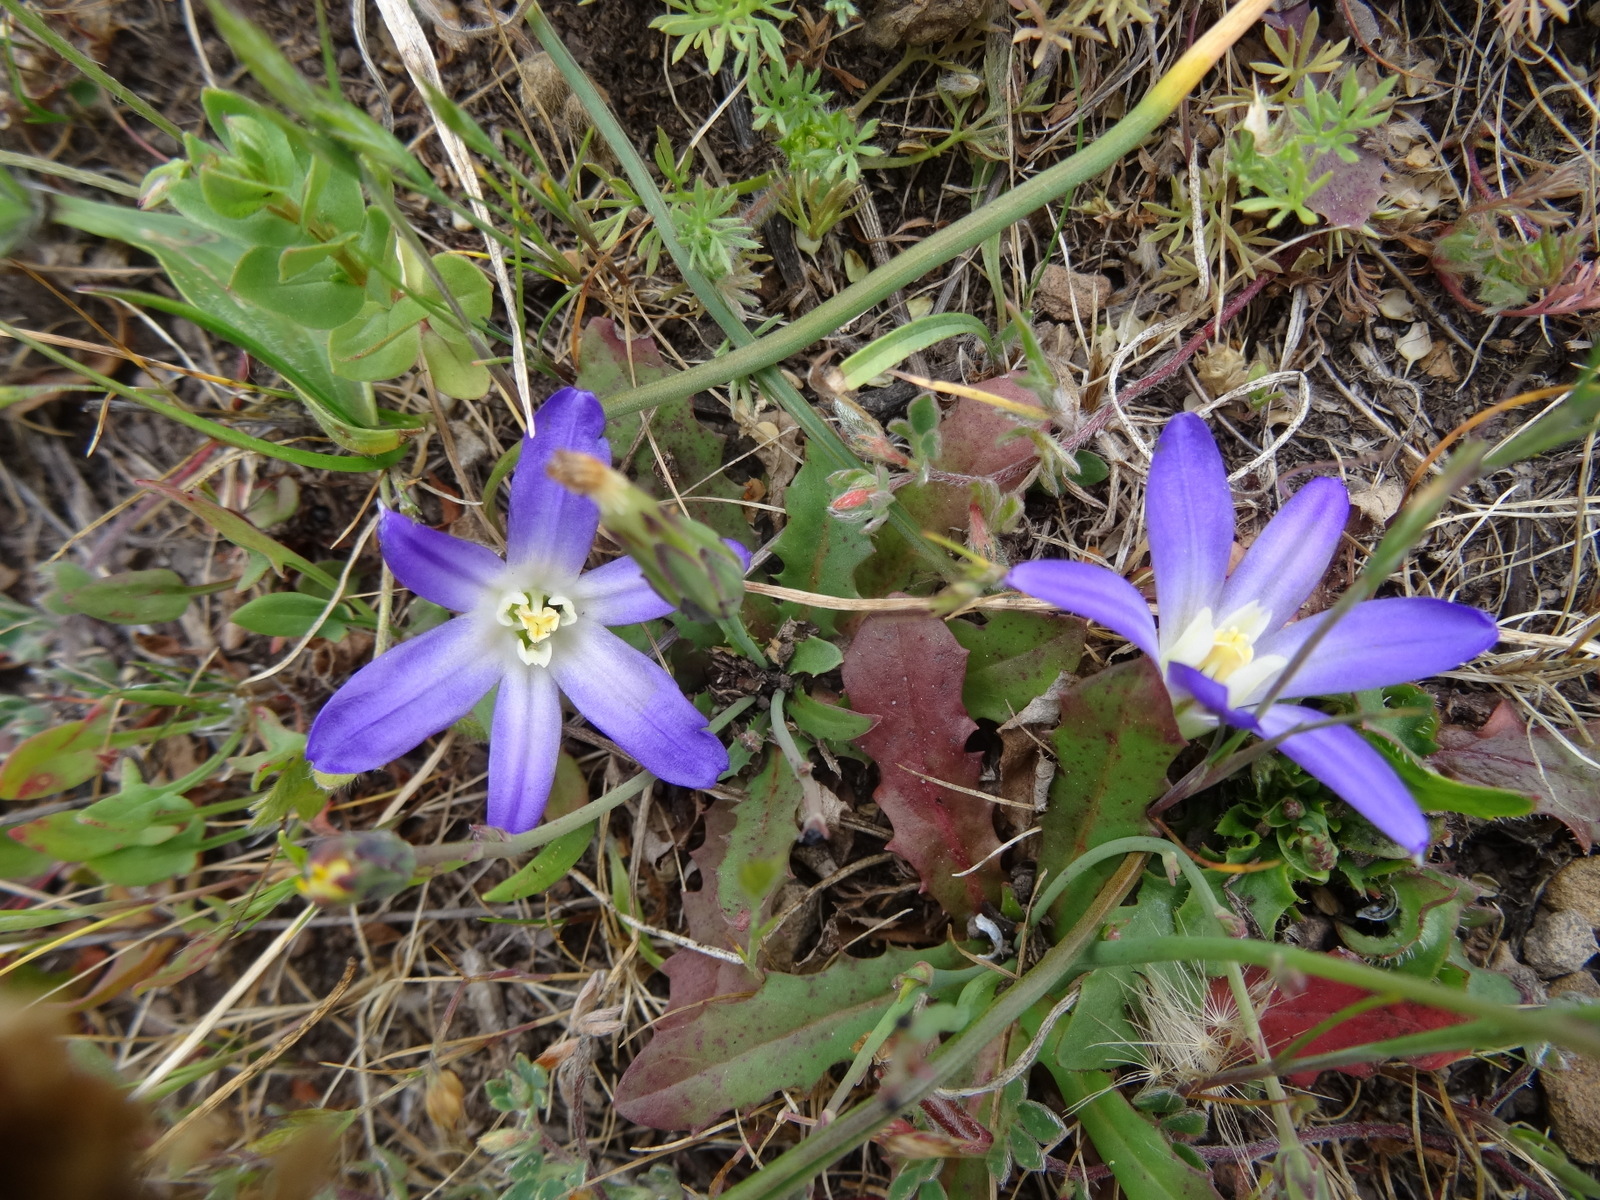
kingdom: Plantae
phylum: Tracheophyta
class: Liliopsida
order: Asparagales
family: Asparagaceae
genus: Brodiaea
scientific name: Brodiaea terrestris
